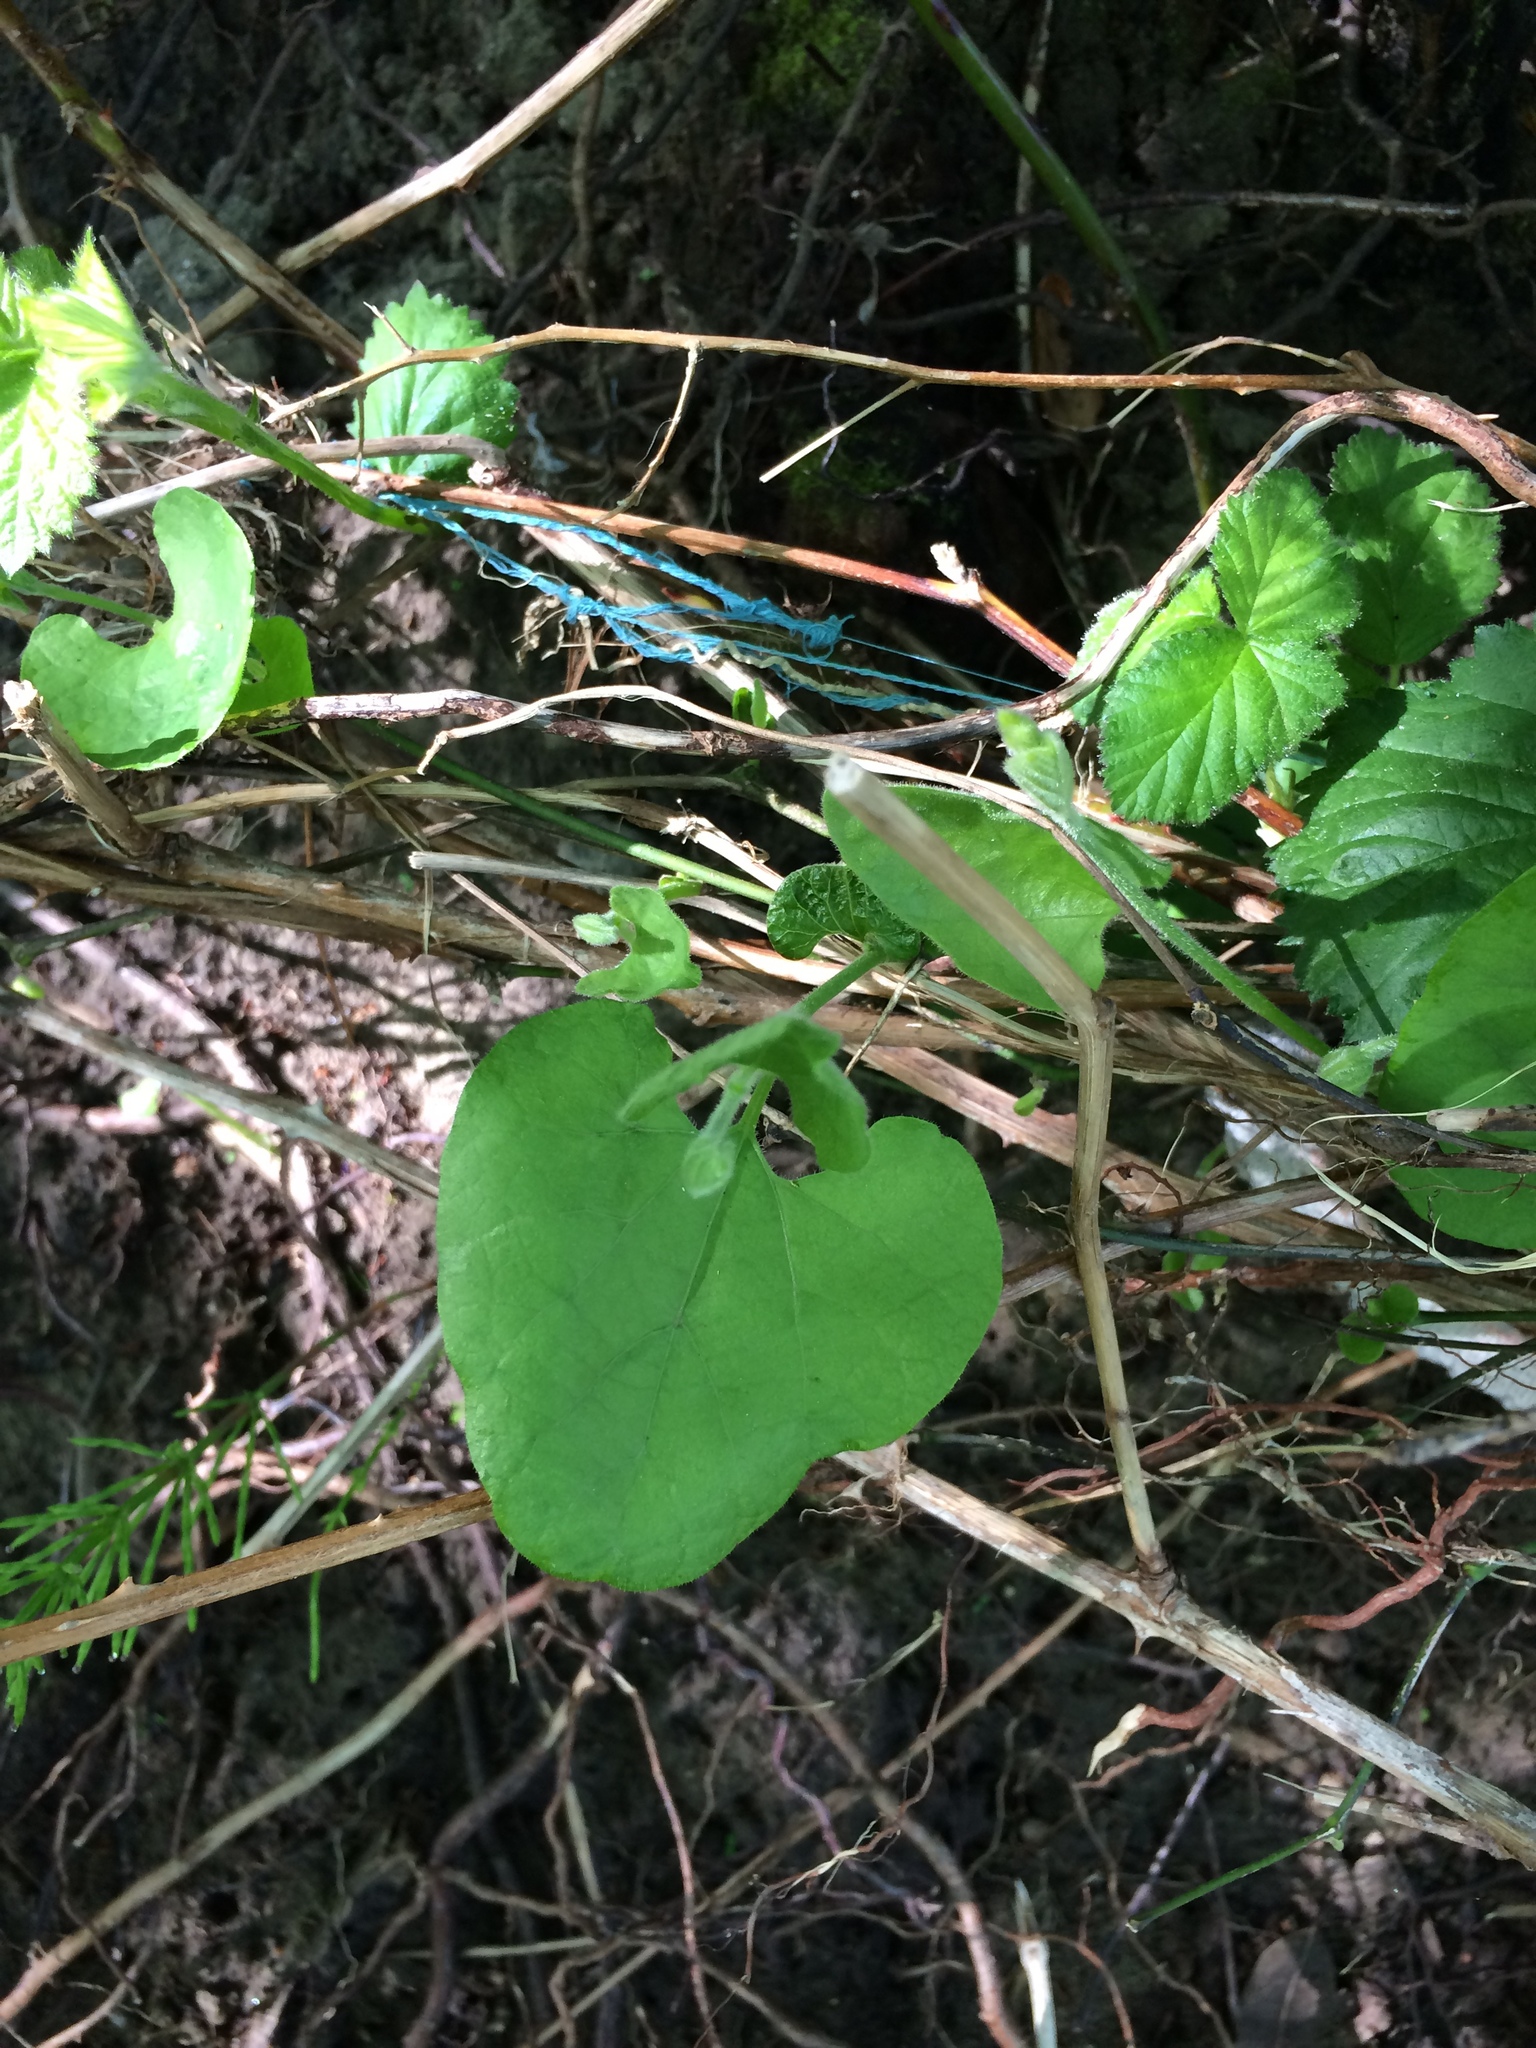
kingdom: Plantae
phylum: Tracheophyta
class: Magnoliopsida
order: Piperales
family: Aristolochiaceae
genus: Isotrema
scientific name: Isotrema californicum
